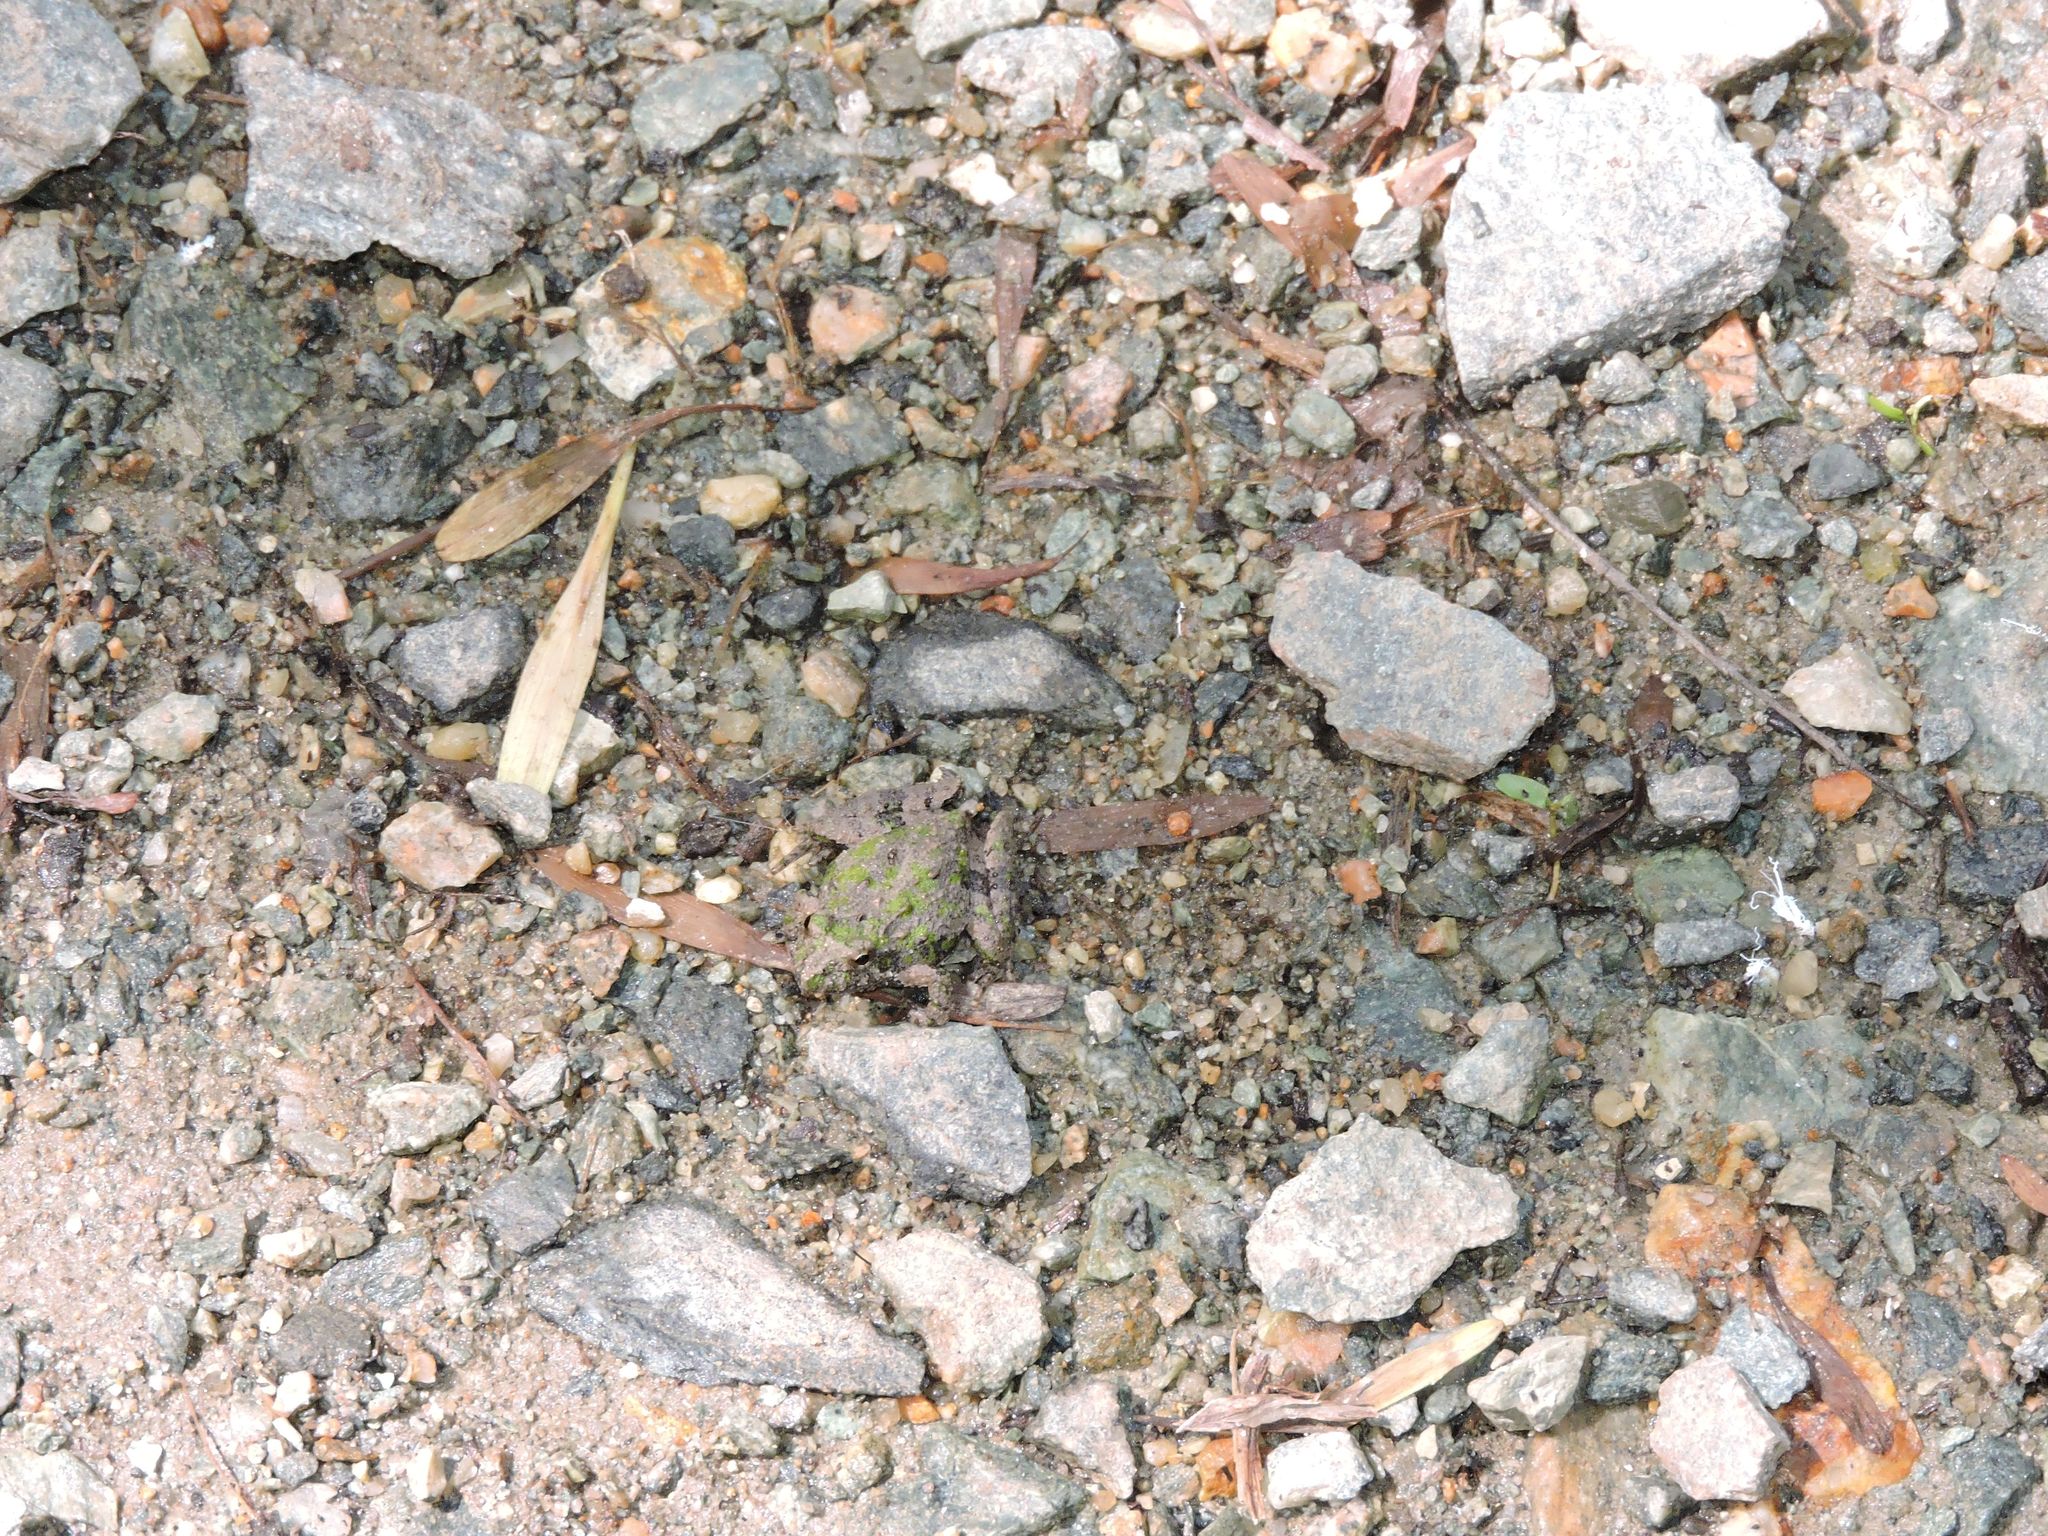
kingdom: Animalia
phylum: Chordata
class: Amphibia
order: Anura
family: Hylidae
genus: Acris
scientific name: Acris crepitans
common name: Northern cricket frog
